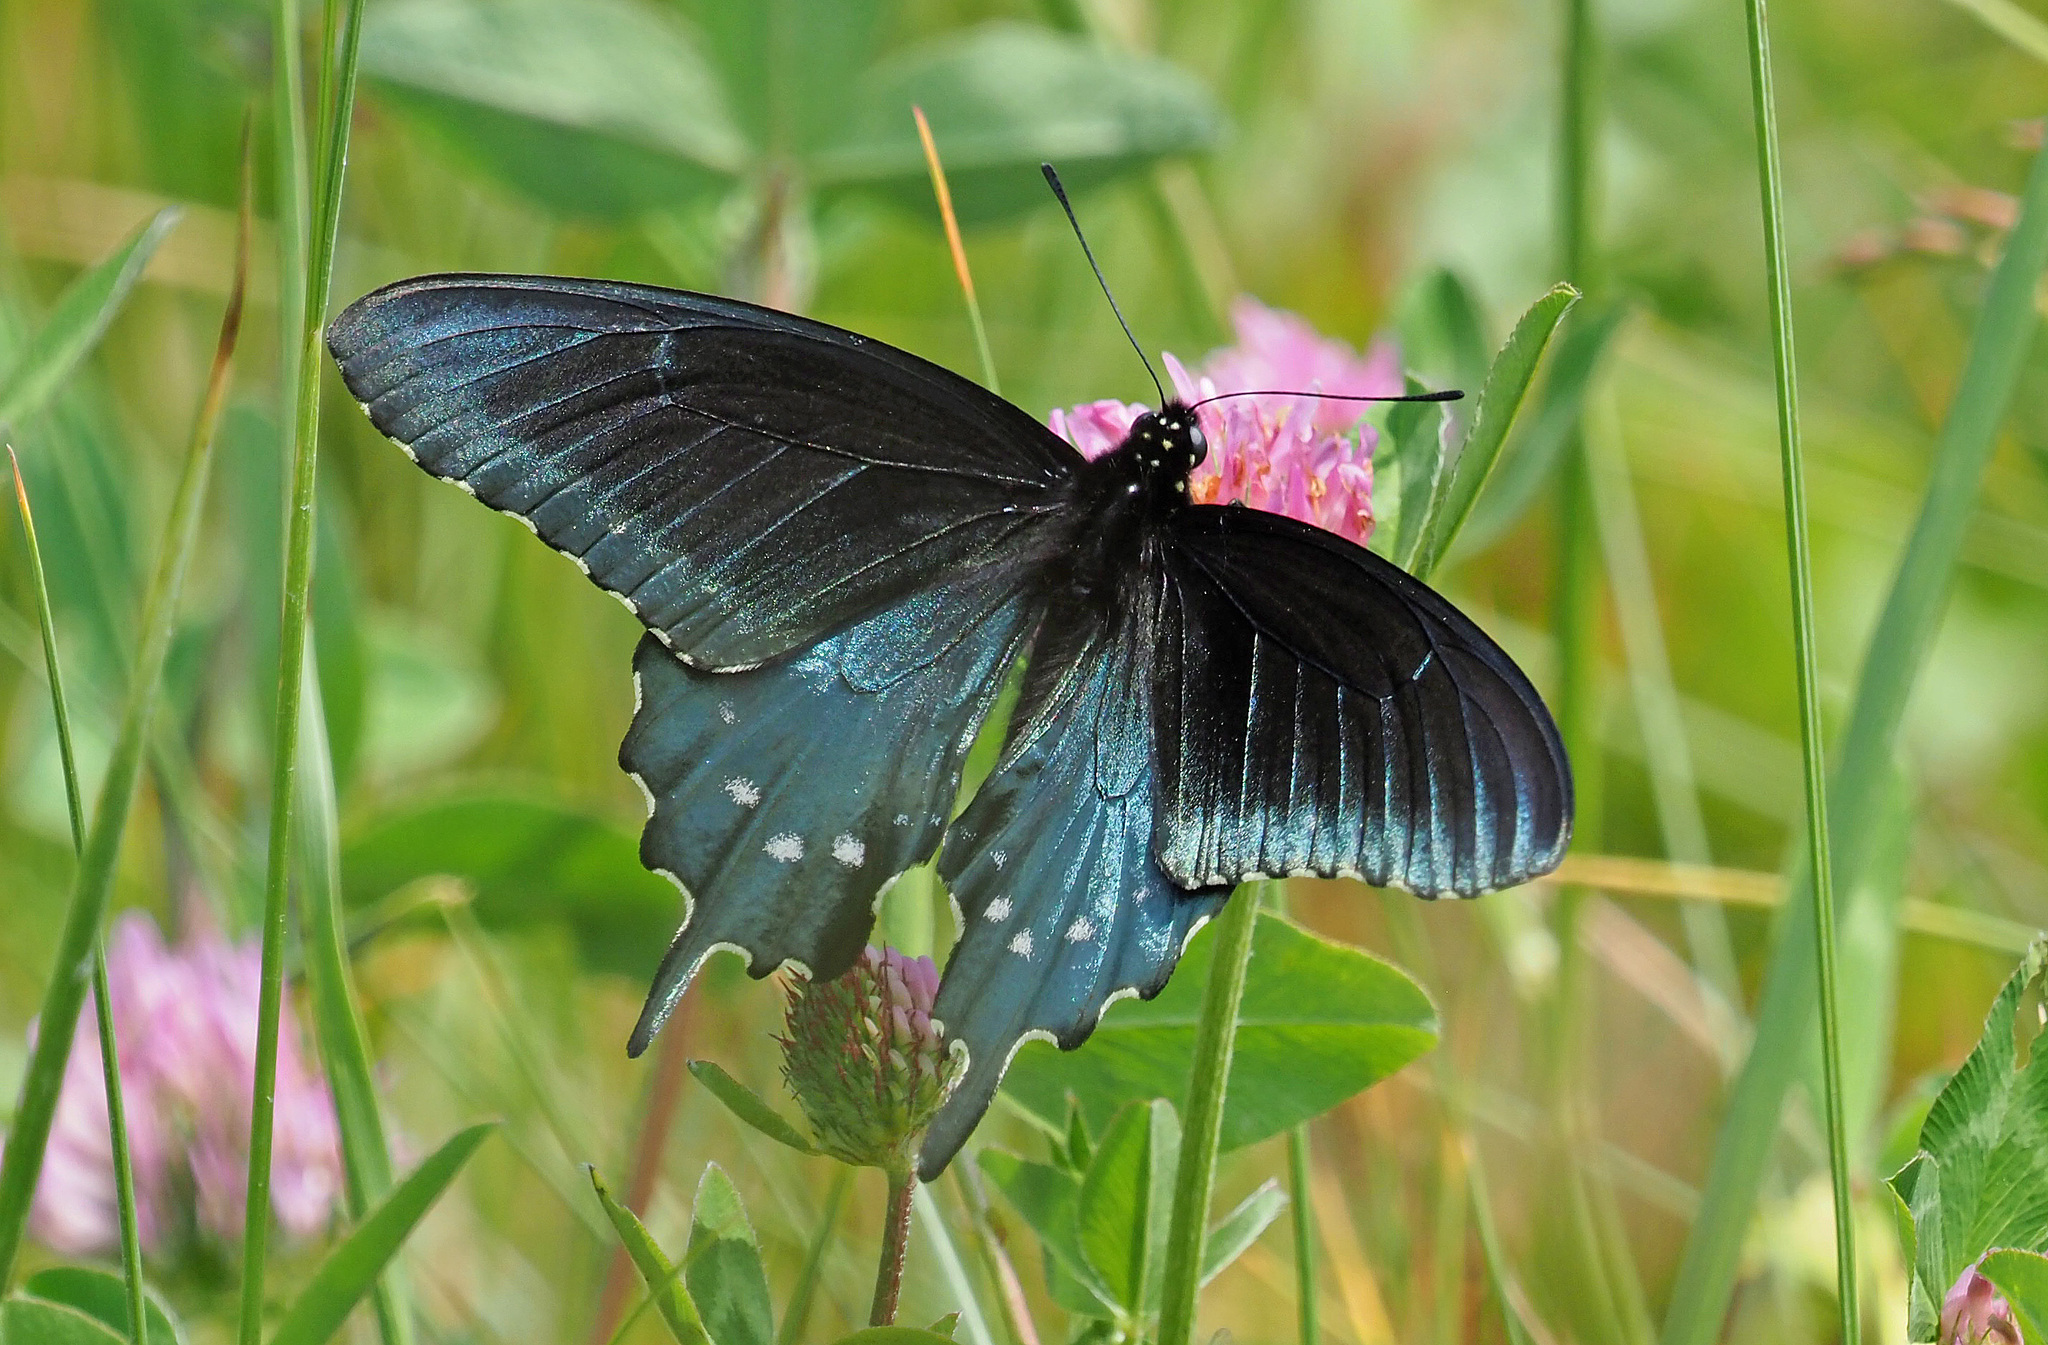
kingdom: Animalia
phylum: Arthropoda
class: Insecta
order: Lepidoptera
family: Papilionidae
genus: Battus
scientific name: Battus philenor
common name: Pipevine swallowtail
